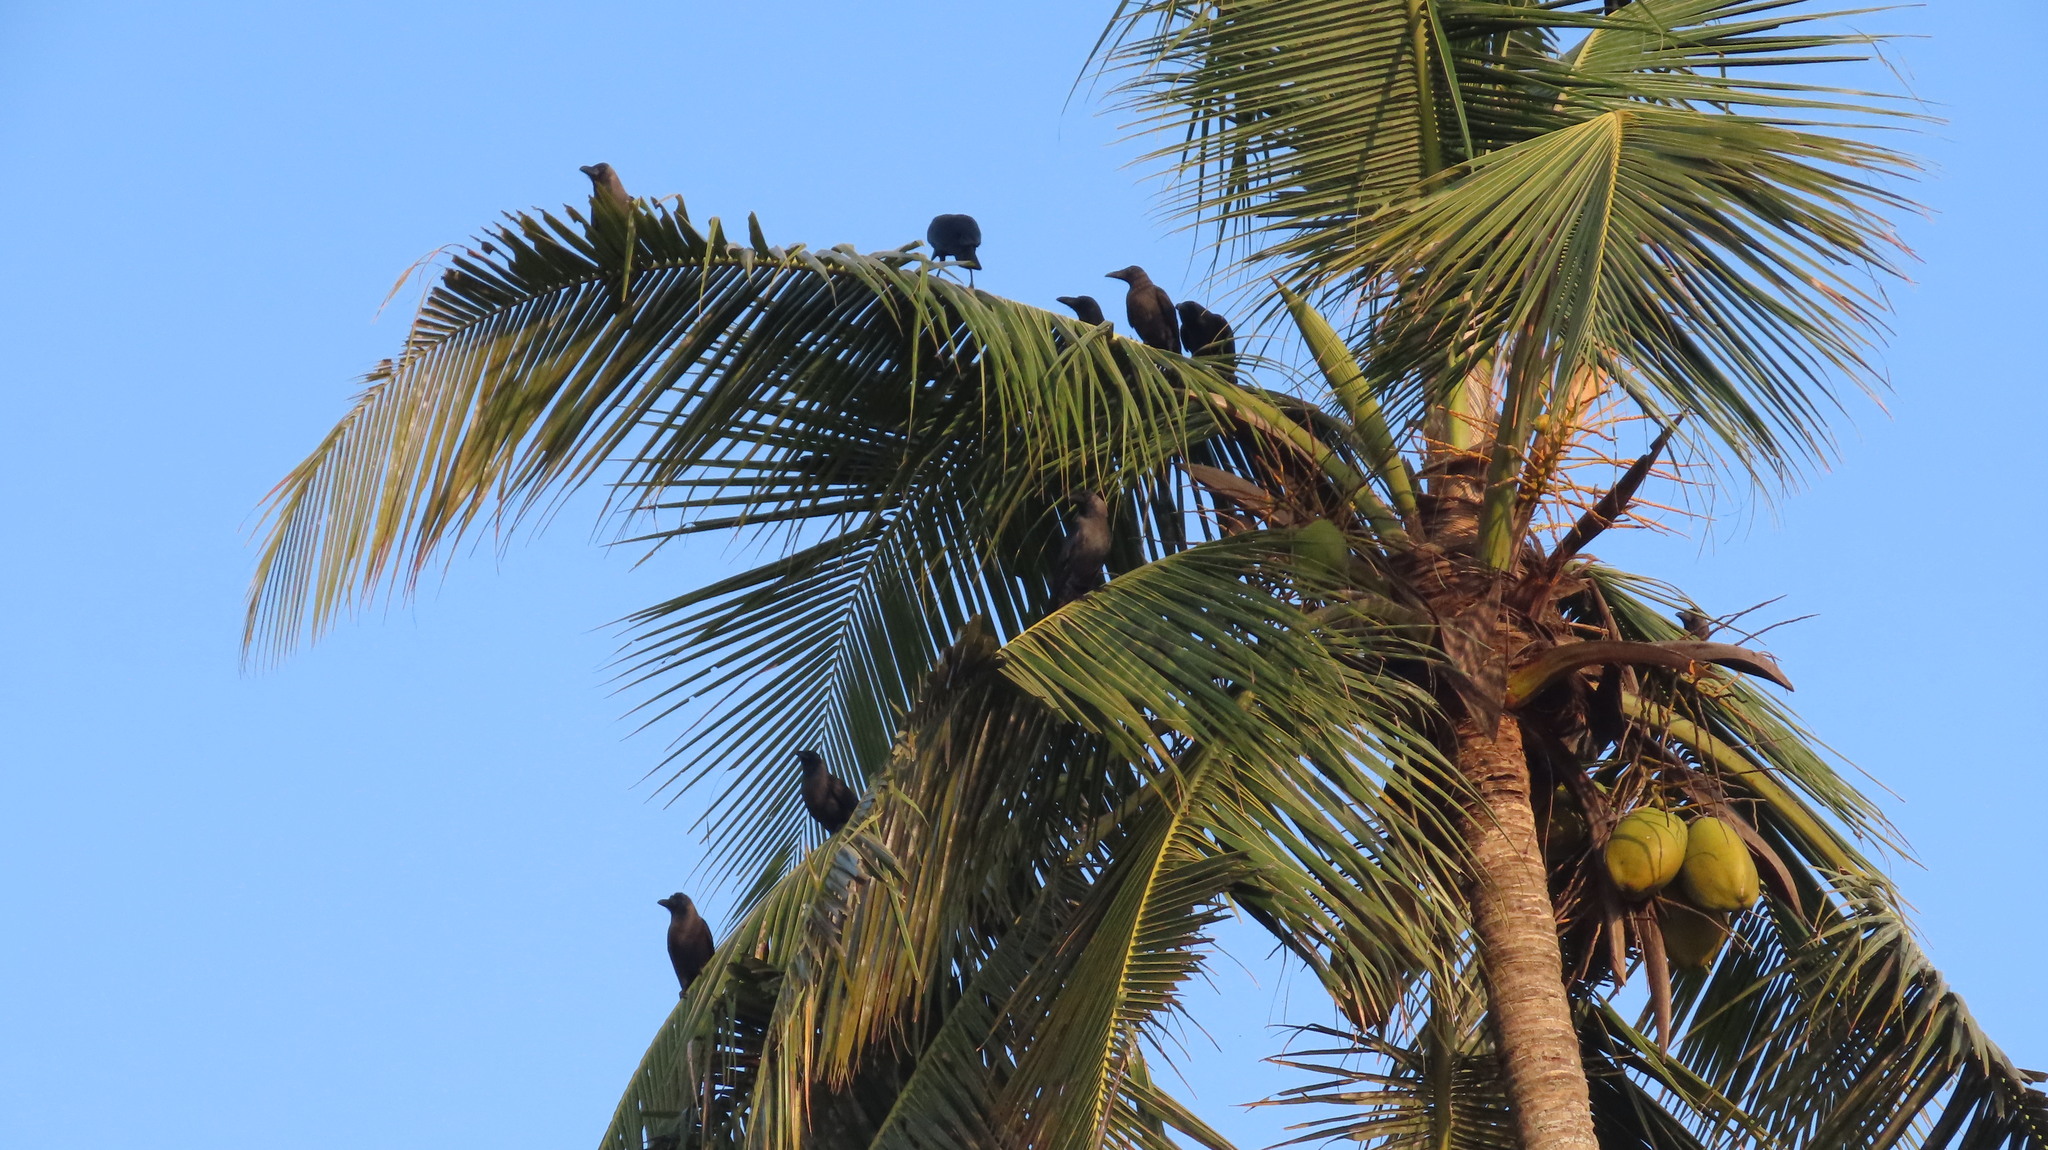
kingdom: Animalia
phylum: Chordata
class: Aves
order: Passeriformes
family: Corvidae
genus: Corvus
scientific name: Corvus splendens
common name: House crow
